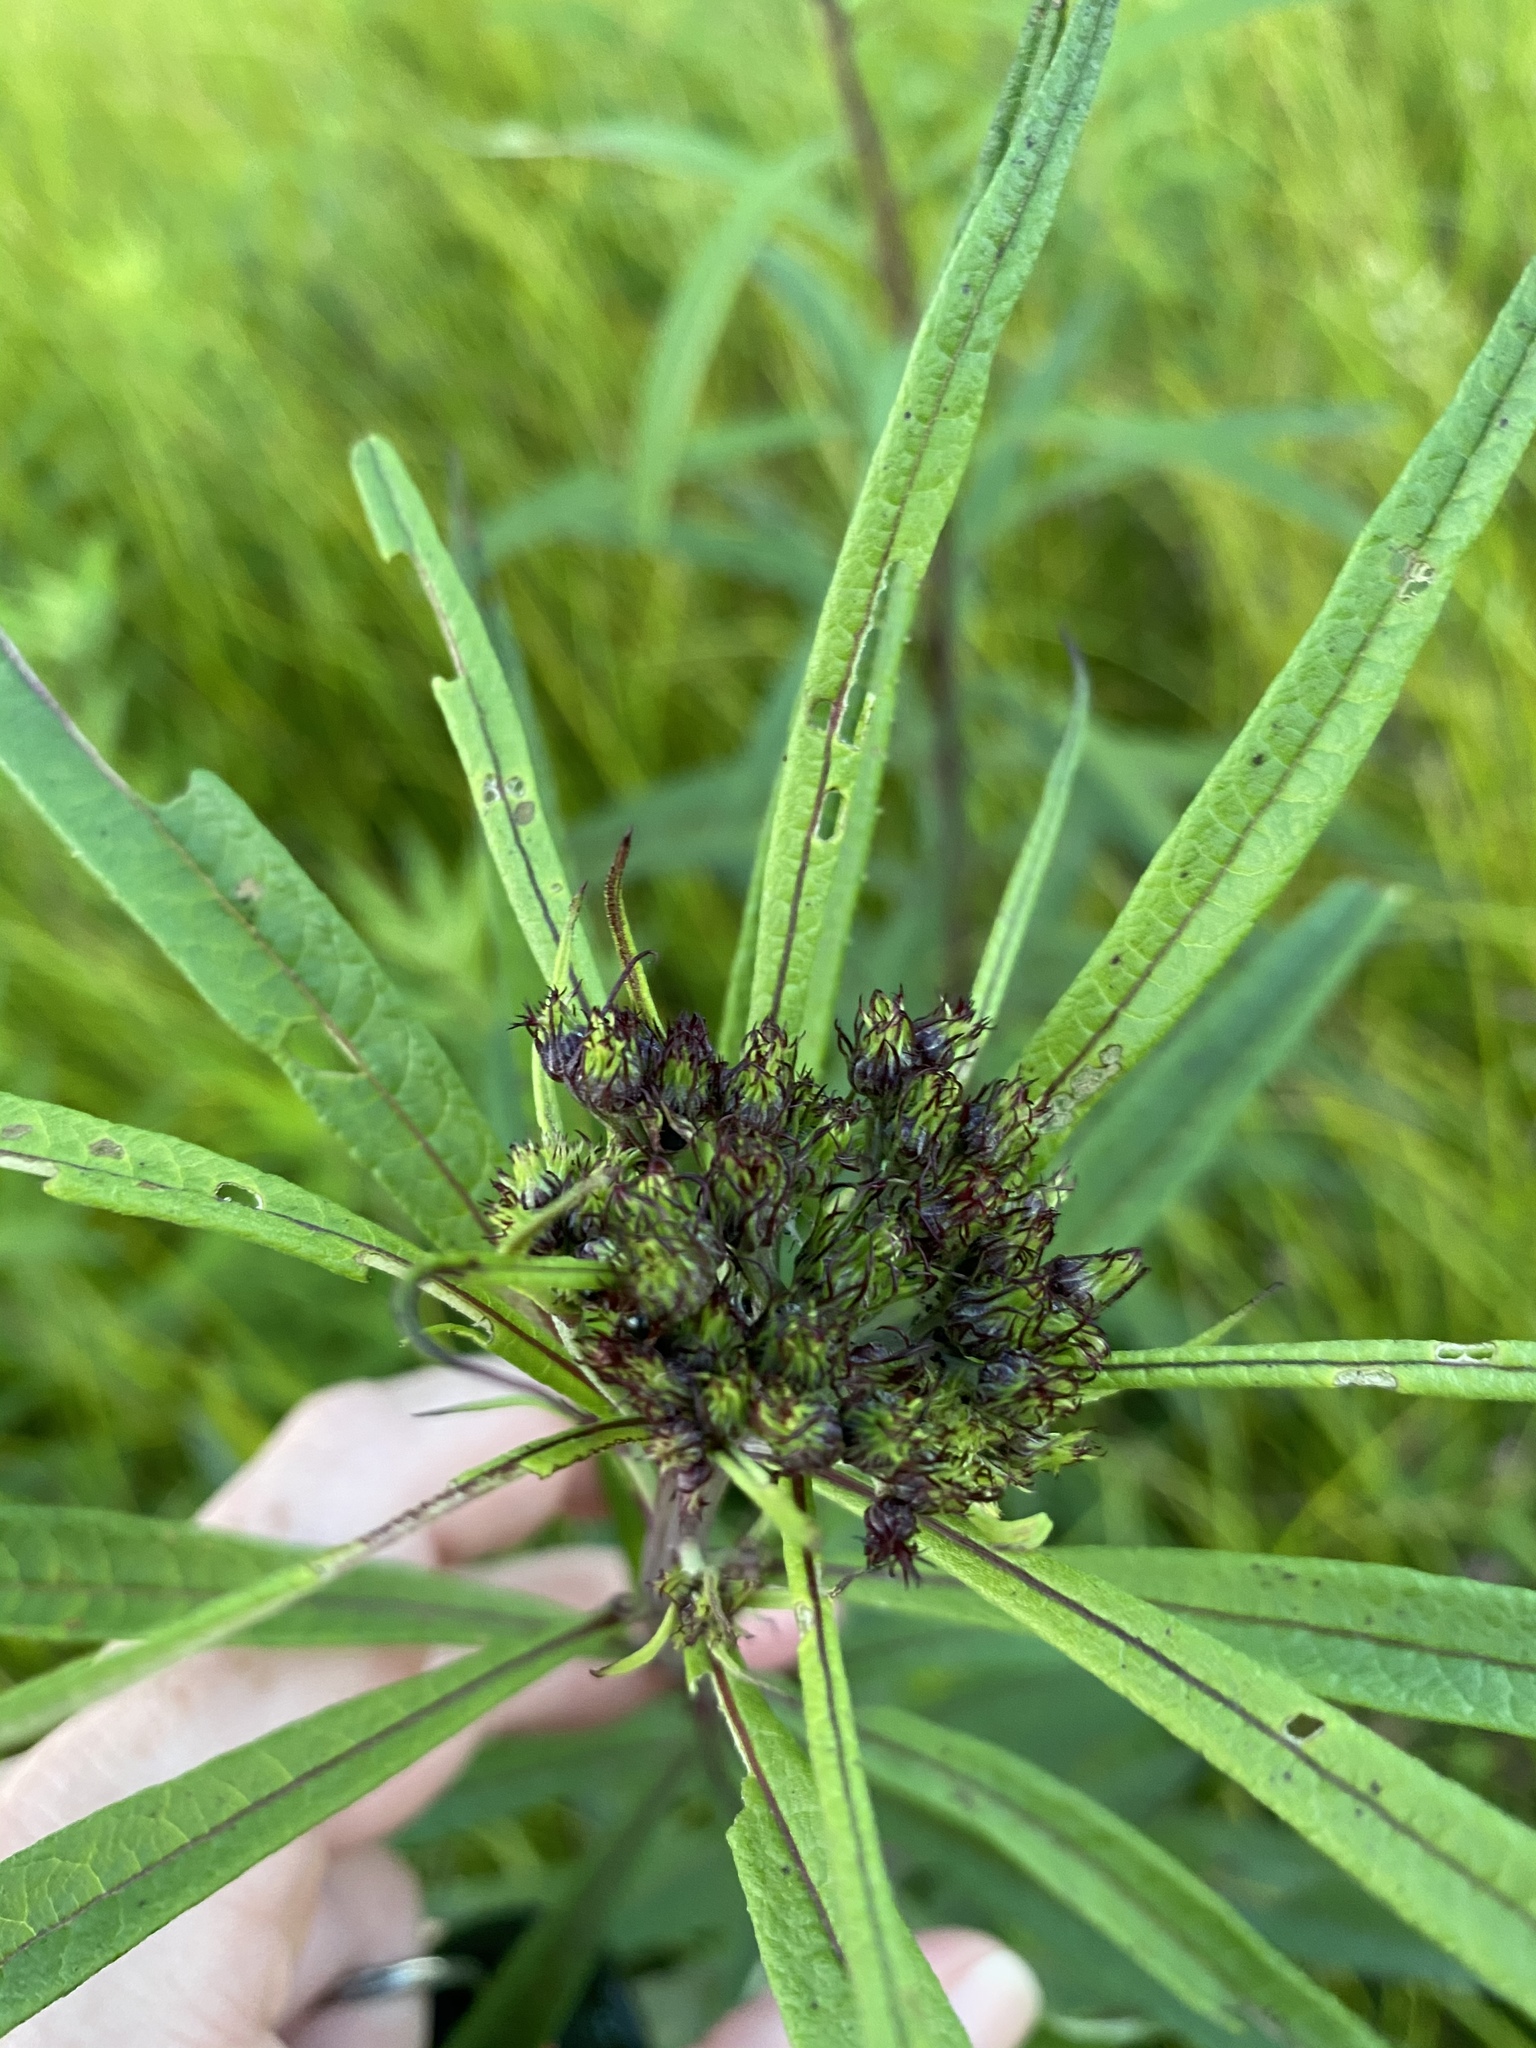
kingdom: Plantae
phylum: Tracheophyta
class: Magnoliopsida
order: Asterales
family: Asteraceae
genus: Vernonia
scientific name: Vernonia noveboracensis
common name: New york ironweed
